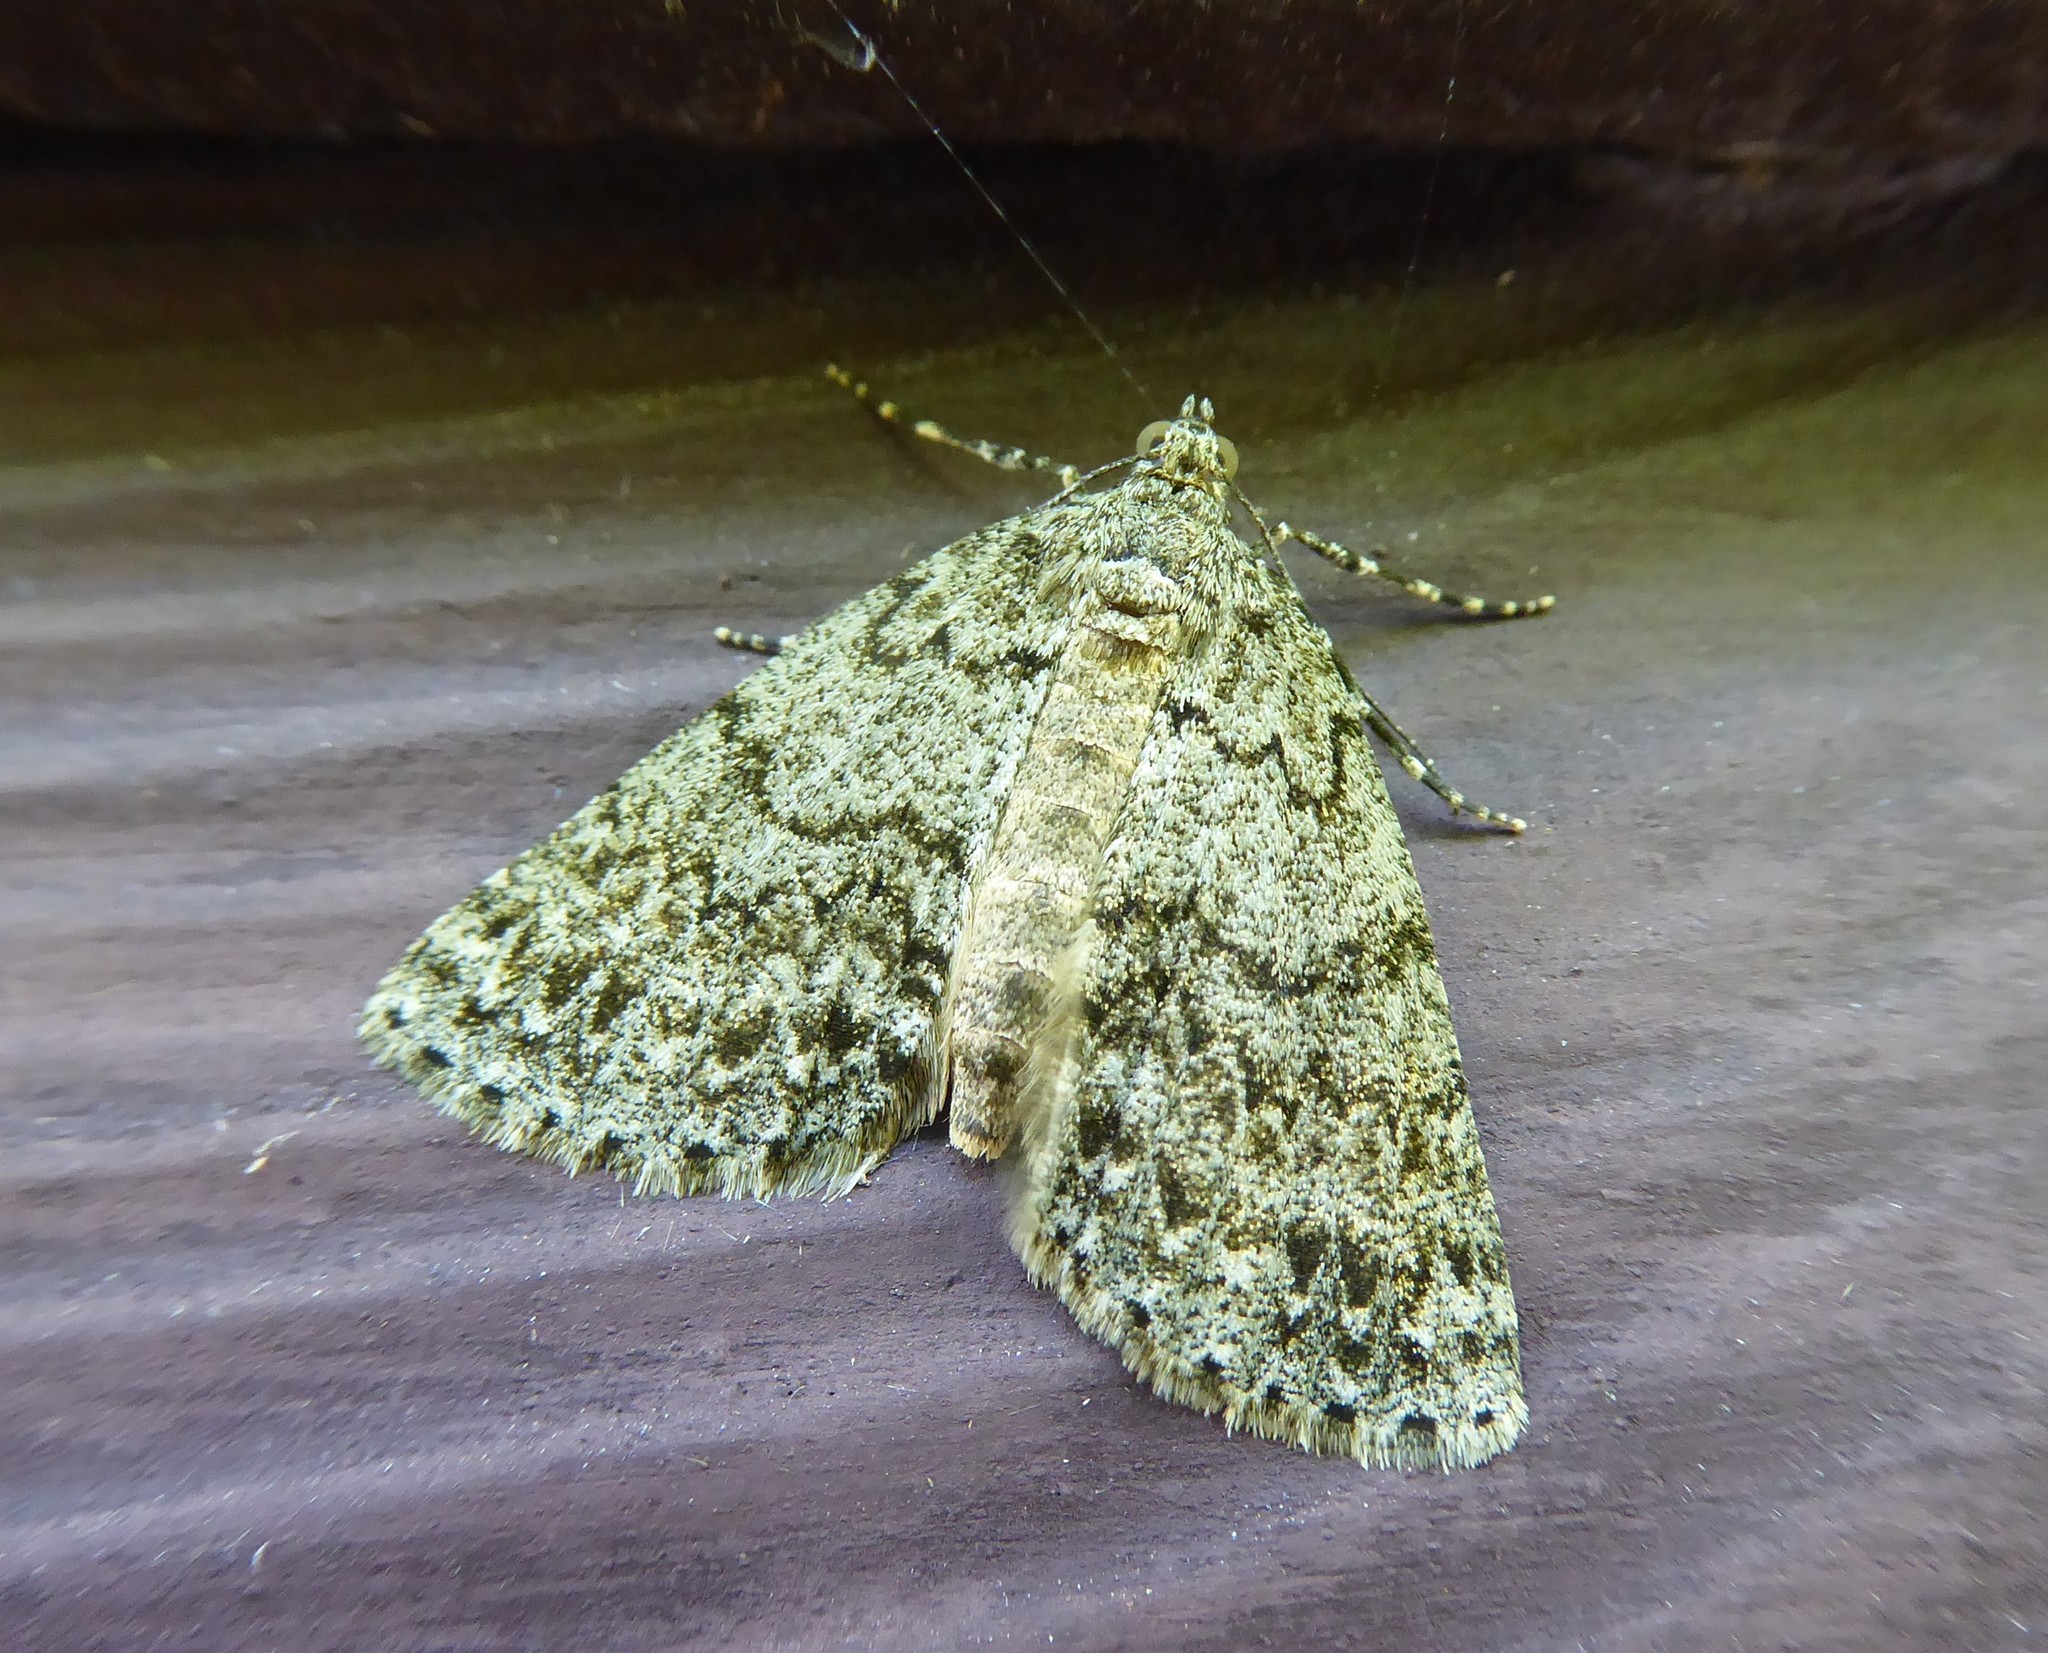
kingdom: Animalia
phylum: Arthropoda
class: Insecta
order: Lepidoptera
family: Geometridae
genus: Pseudocoremia
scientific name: Pseudocoremia indistincta
